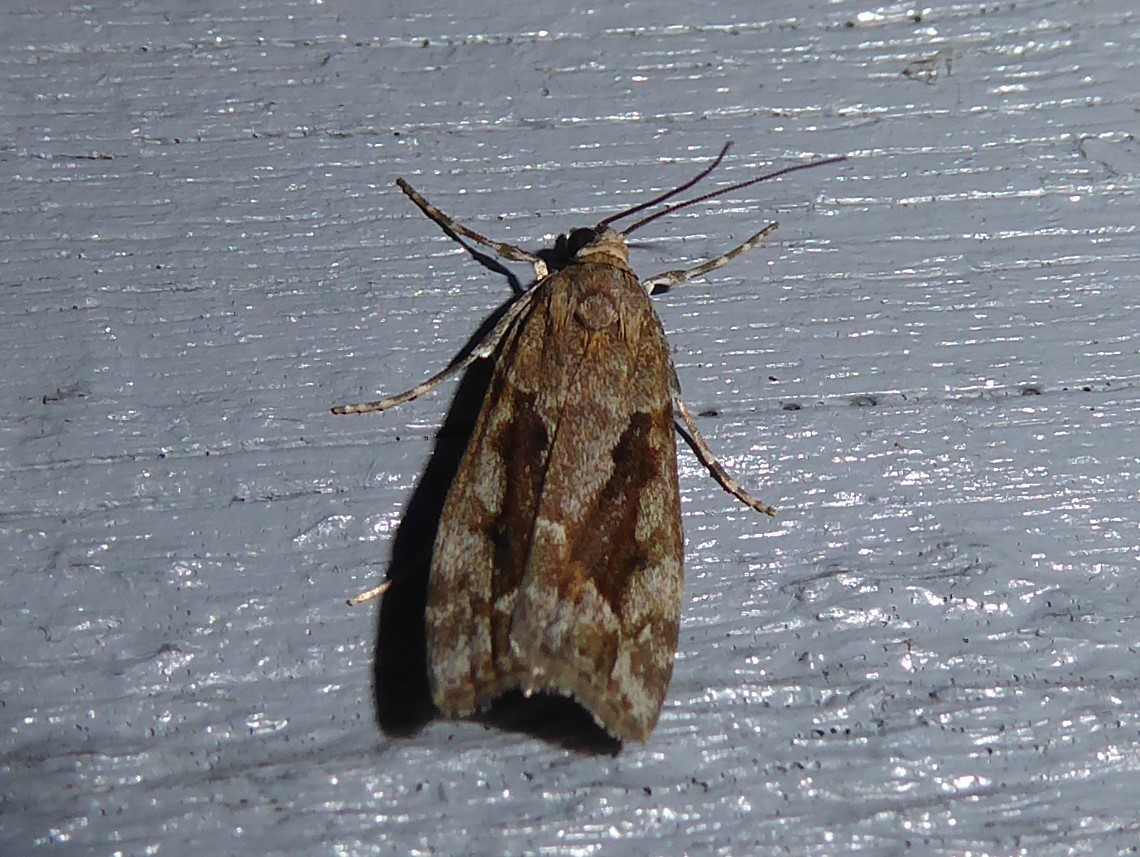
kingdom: Animalia
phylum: Arthropoda
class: Insecta
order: Lepidoptera
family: Crambidae
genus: Eudonia
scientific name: Eudonia submarginalis
